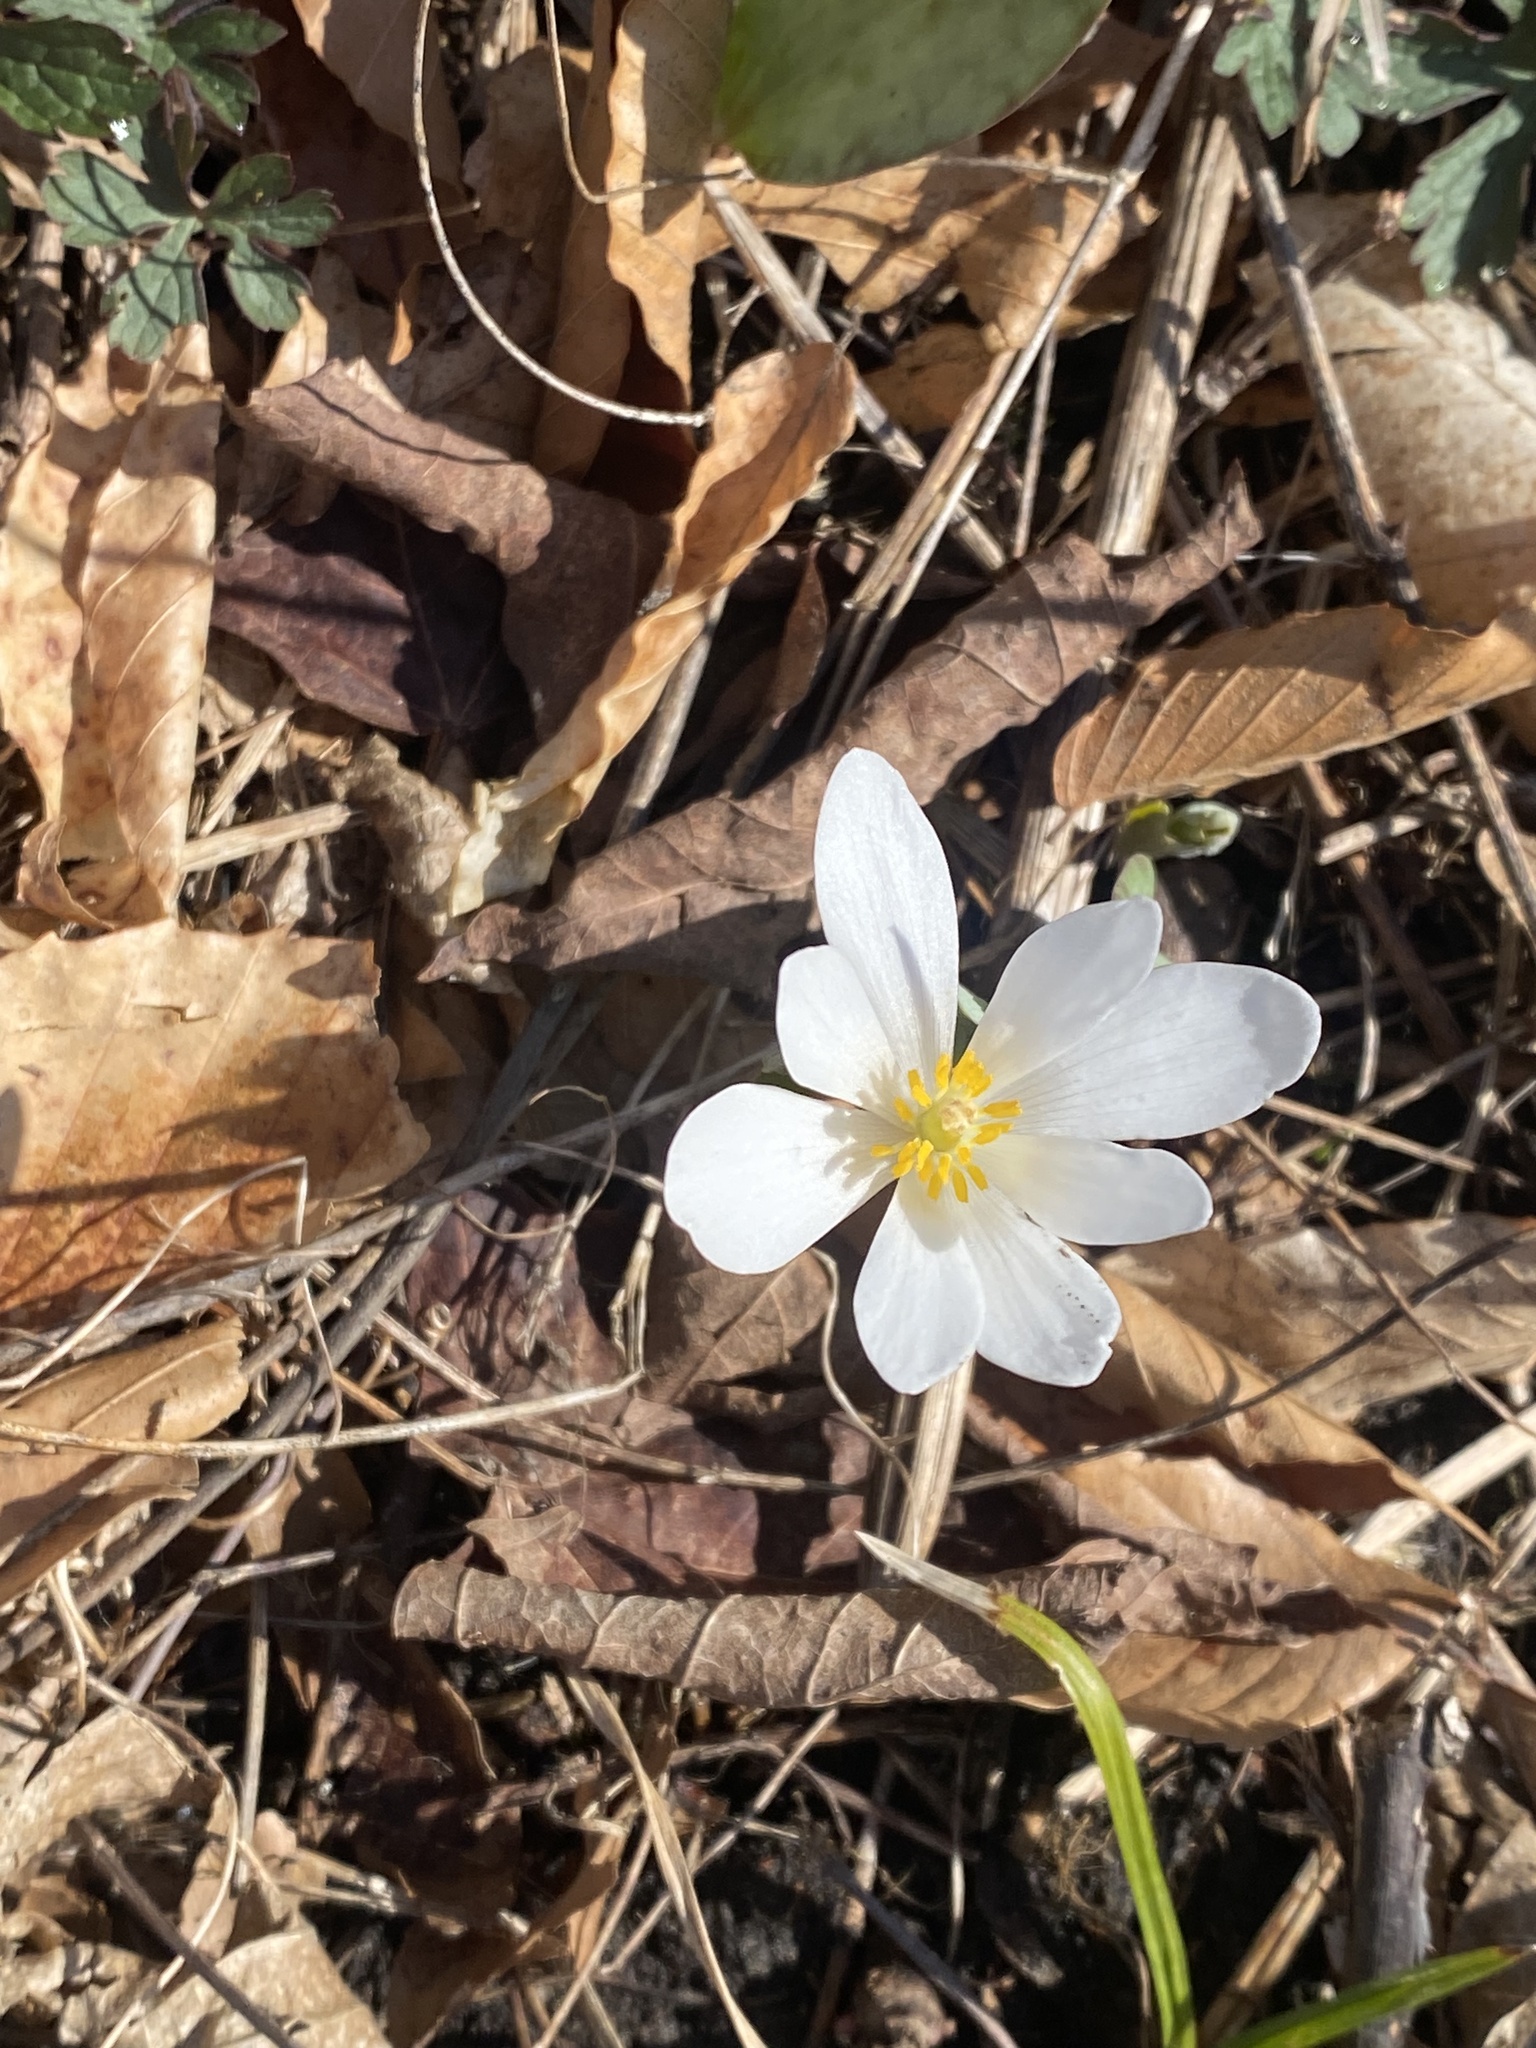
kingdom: Plantae
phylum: Tracheophyta
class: Magnoliopsida
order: Ranunculales
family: Papaveraceae
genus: Sanguinaria
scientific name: Sanguinaria canadensis
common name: Bloodroot
